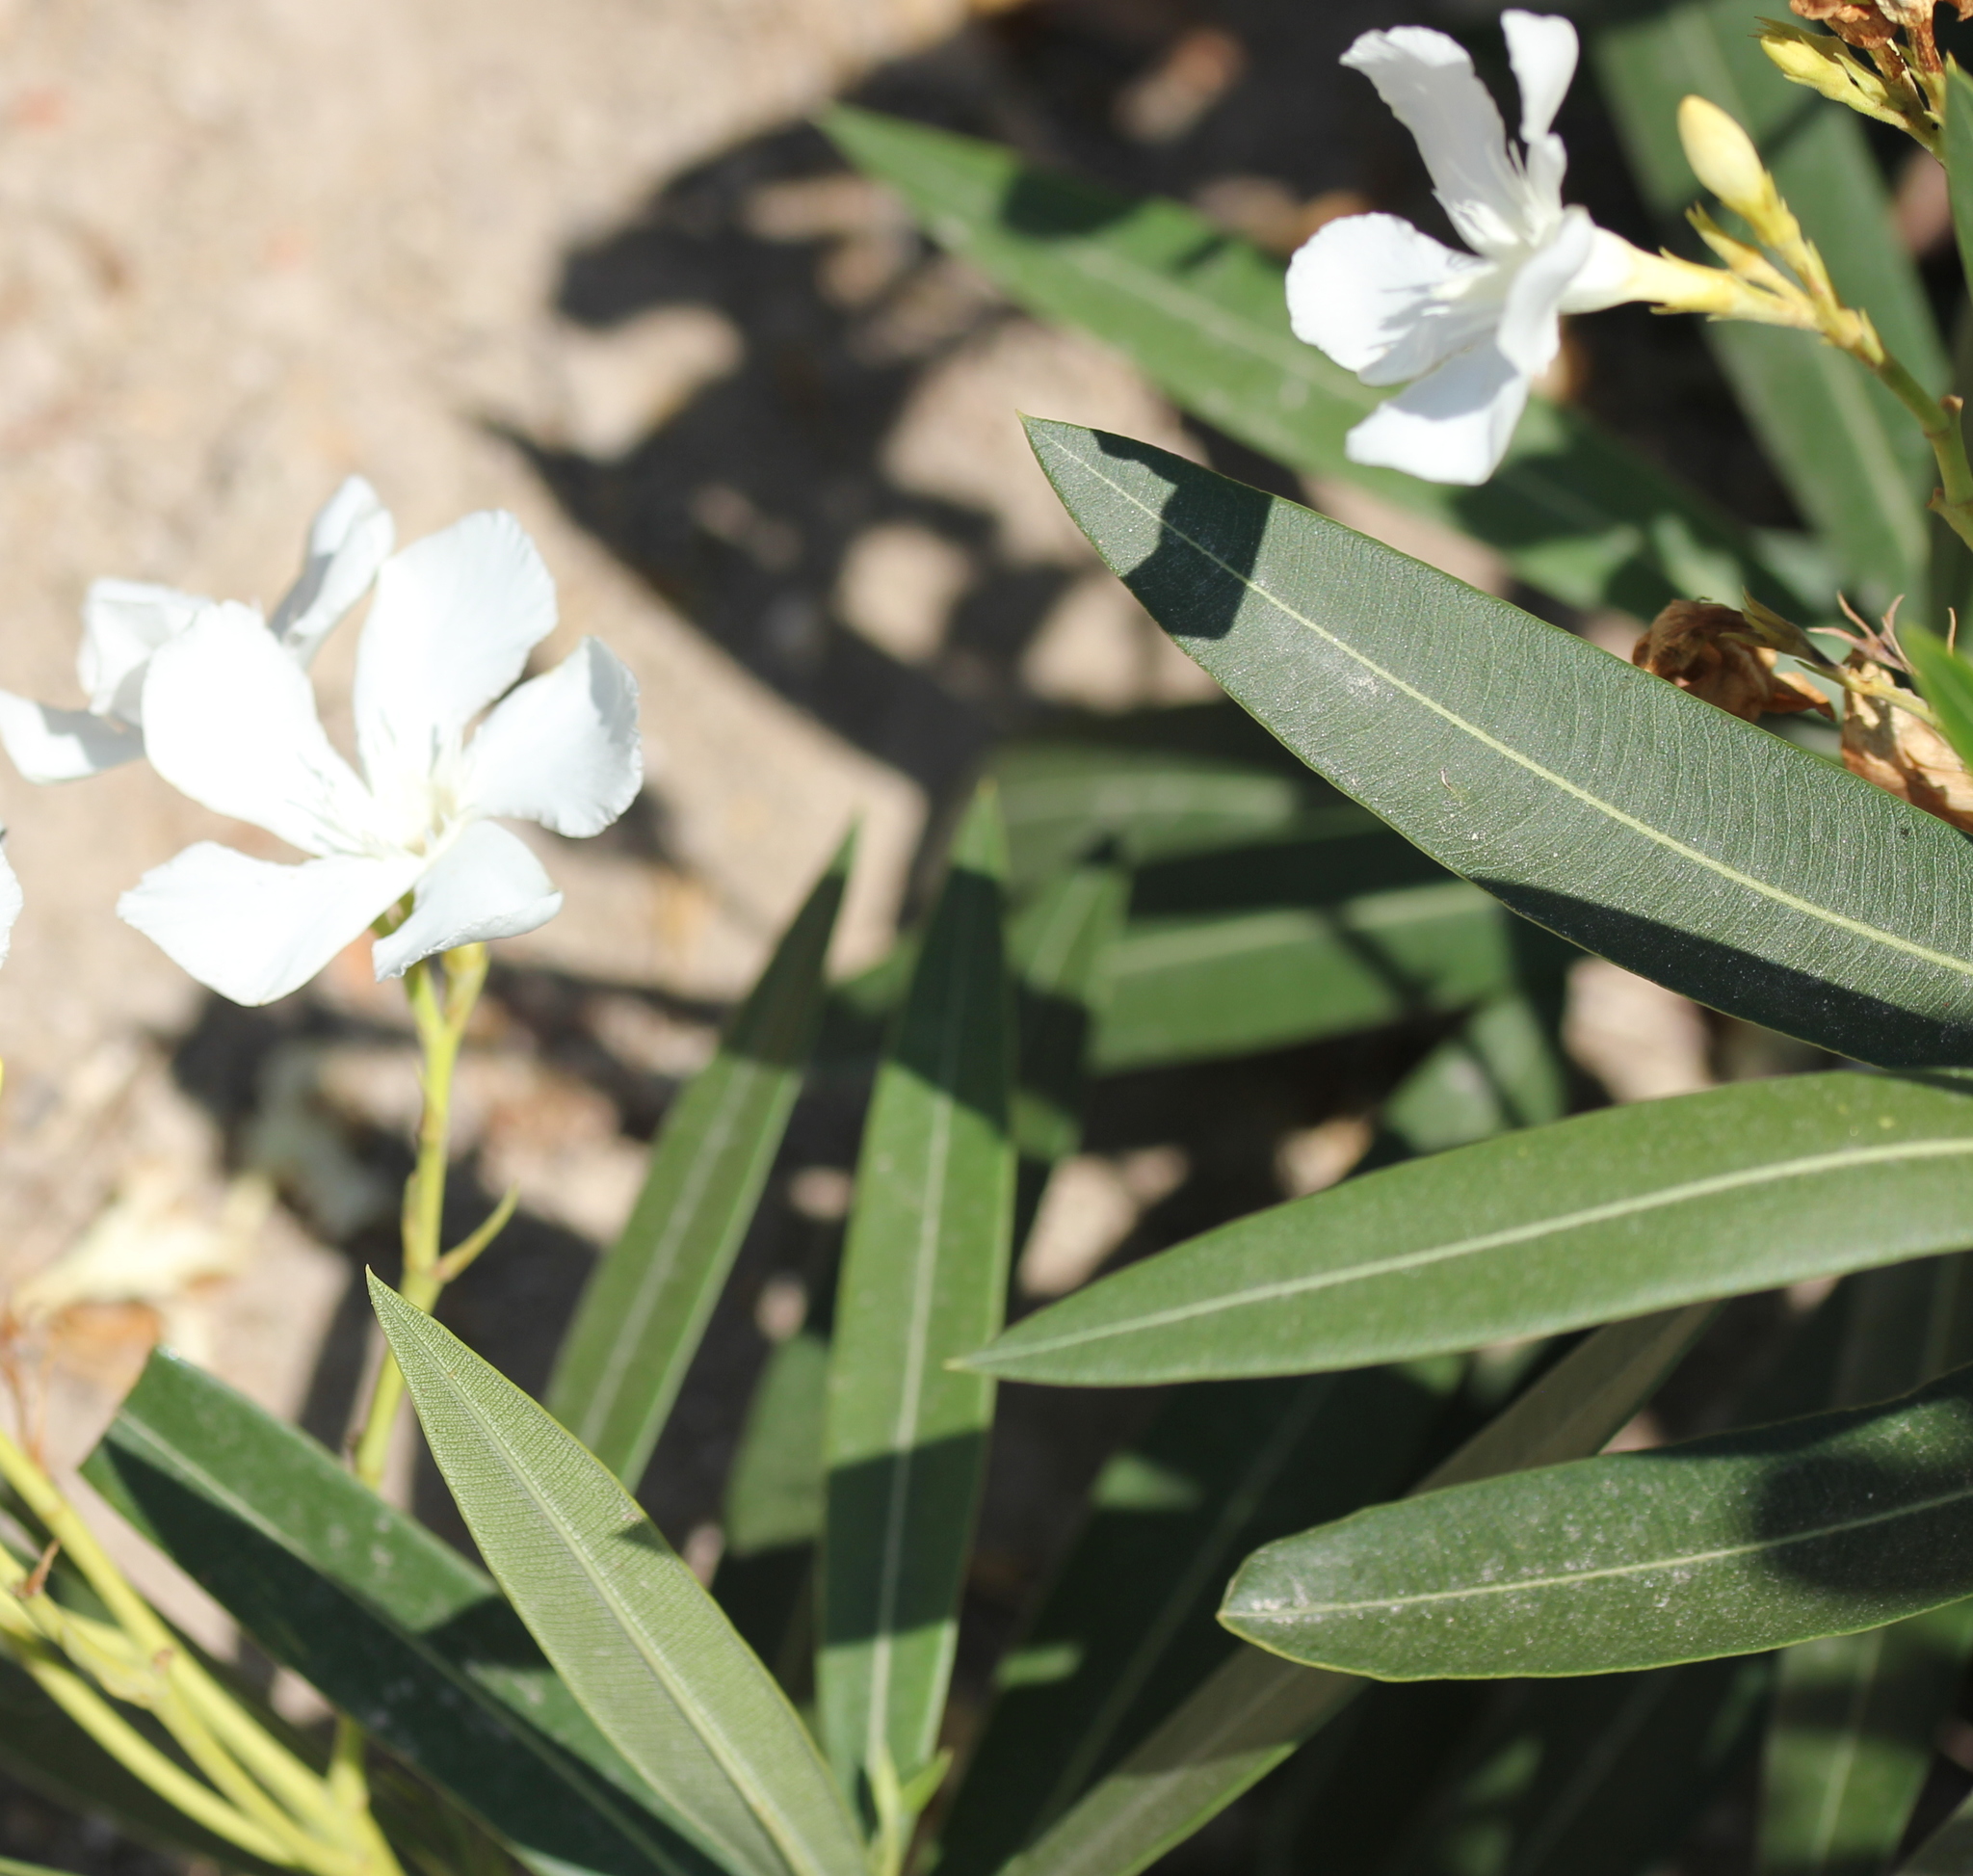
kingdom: Plantae
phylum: Tracheophyta
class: Magnoliopsida
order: Gentianales
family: Apocynaceae
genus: Nerium
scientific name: Nerium oleander
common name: Oleander
